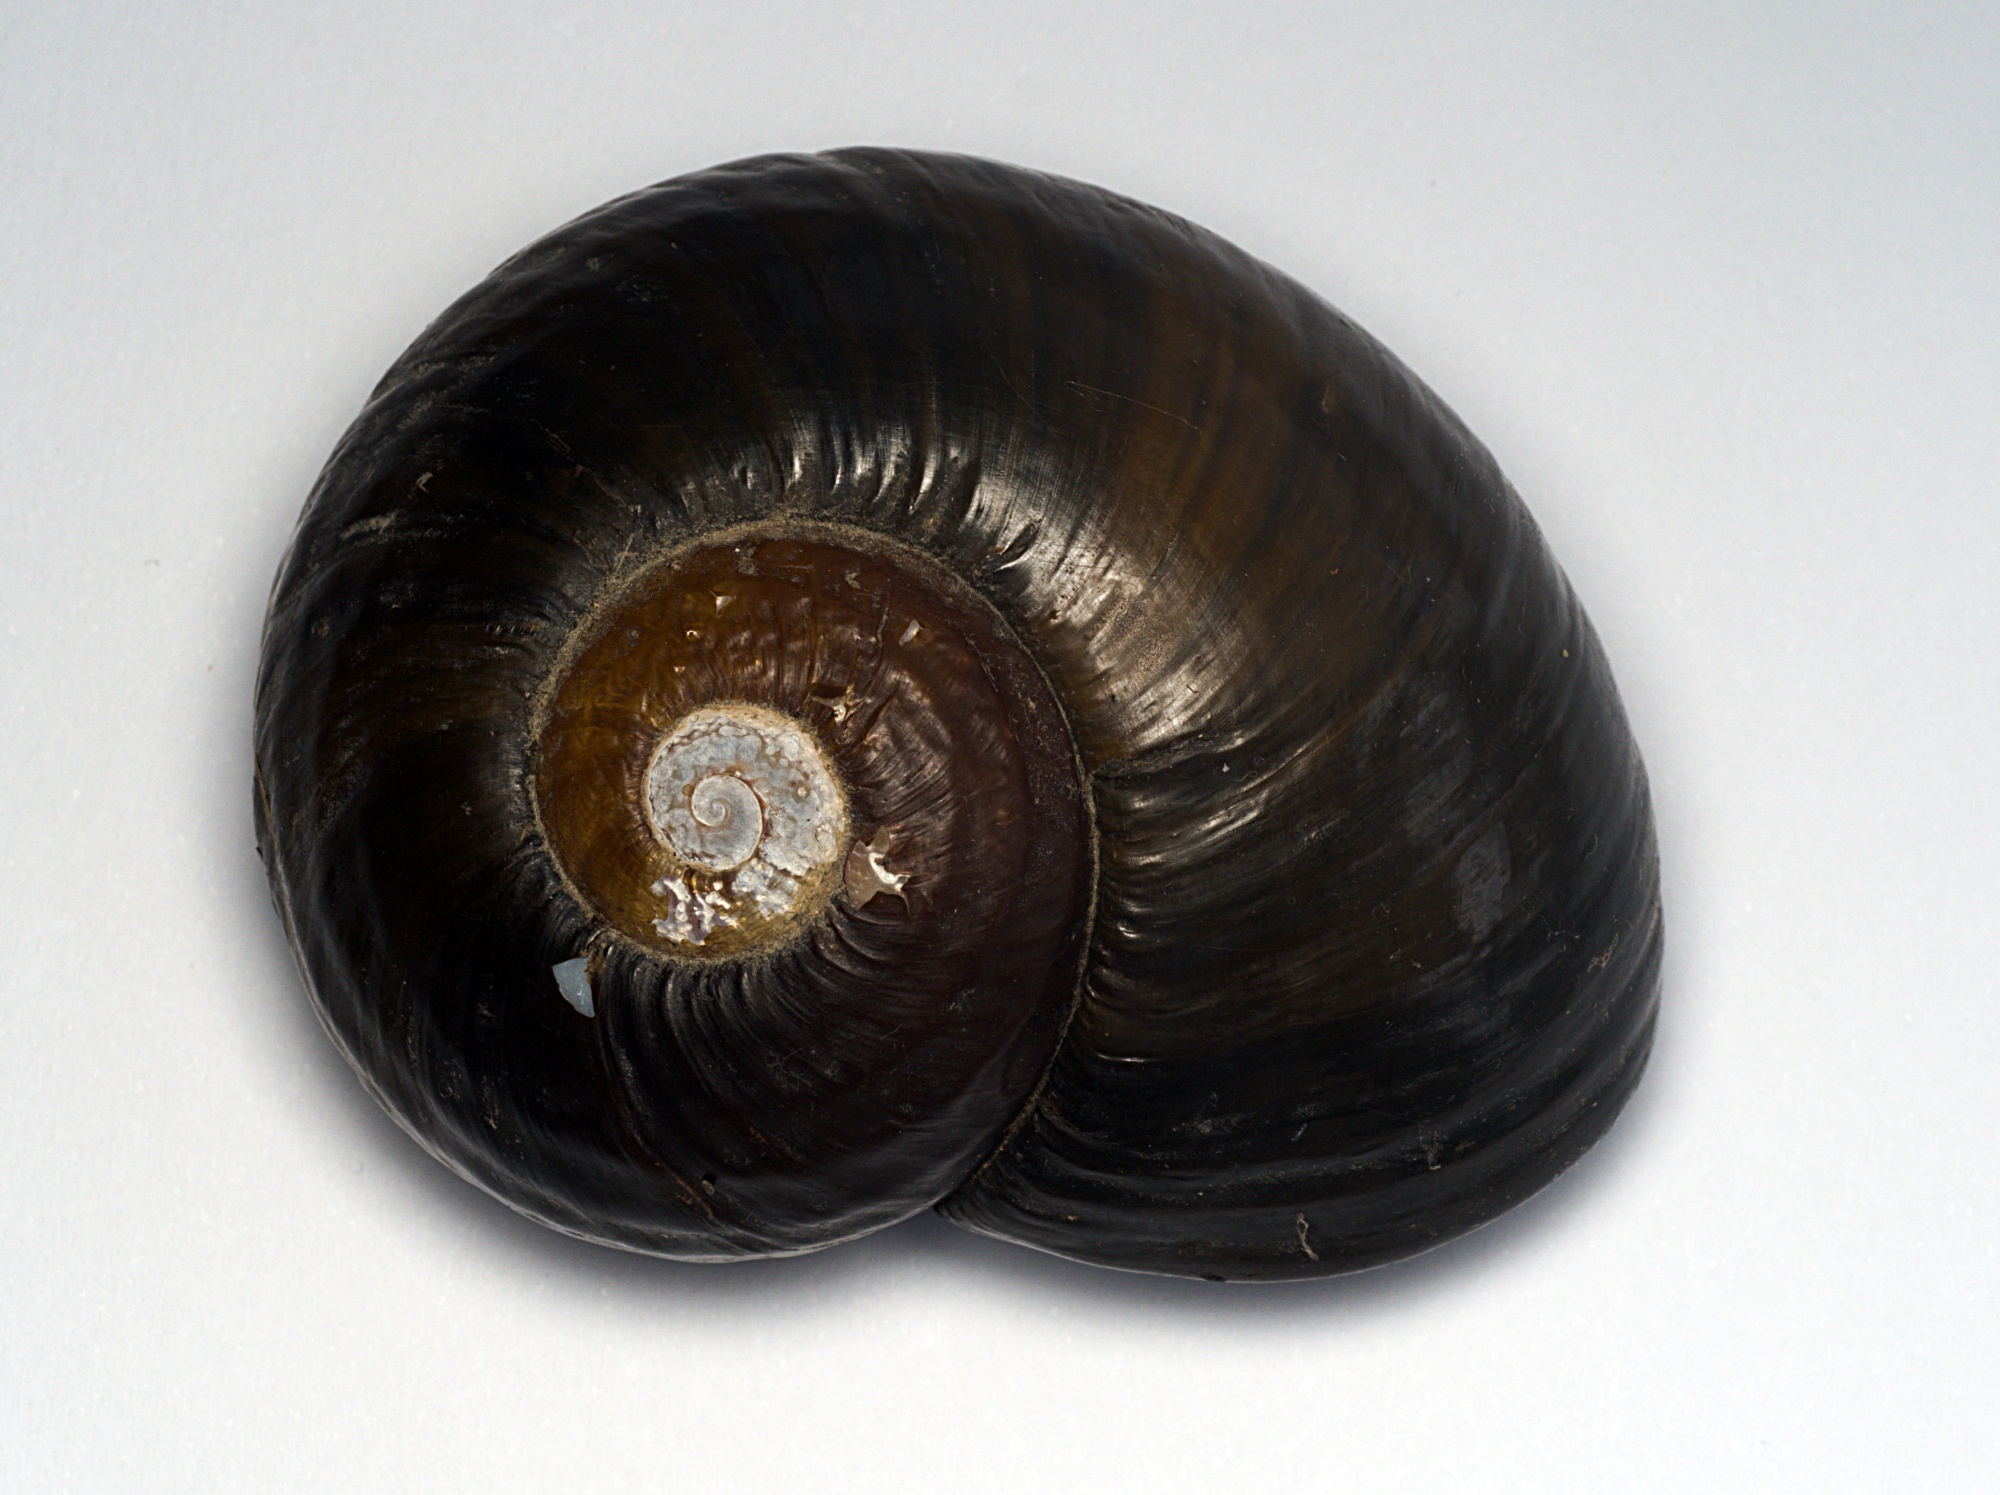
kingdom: Animalia
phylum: Mollusca
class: Gastropoda
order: Stylommatophora
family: Rhytididae
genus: Paryphanta
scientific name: Paryphanta busbyi
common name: Kauri snail
